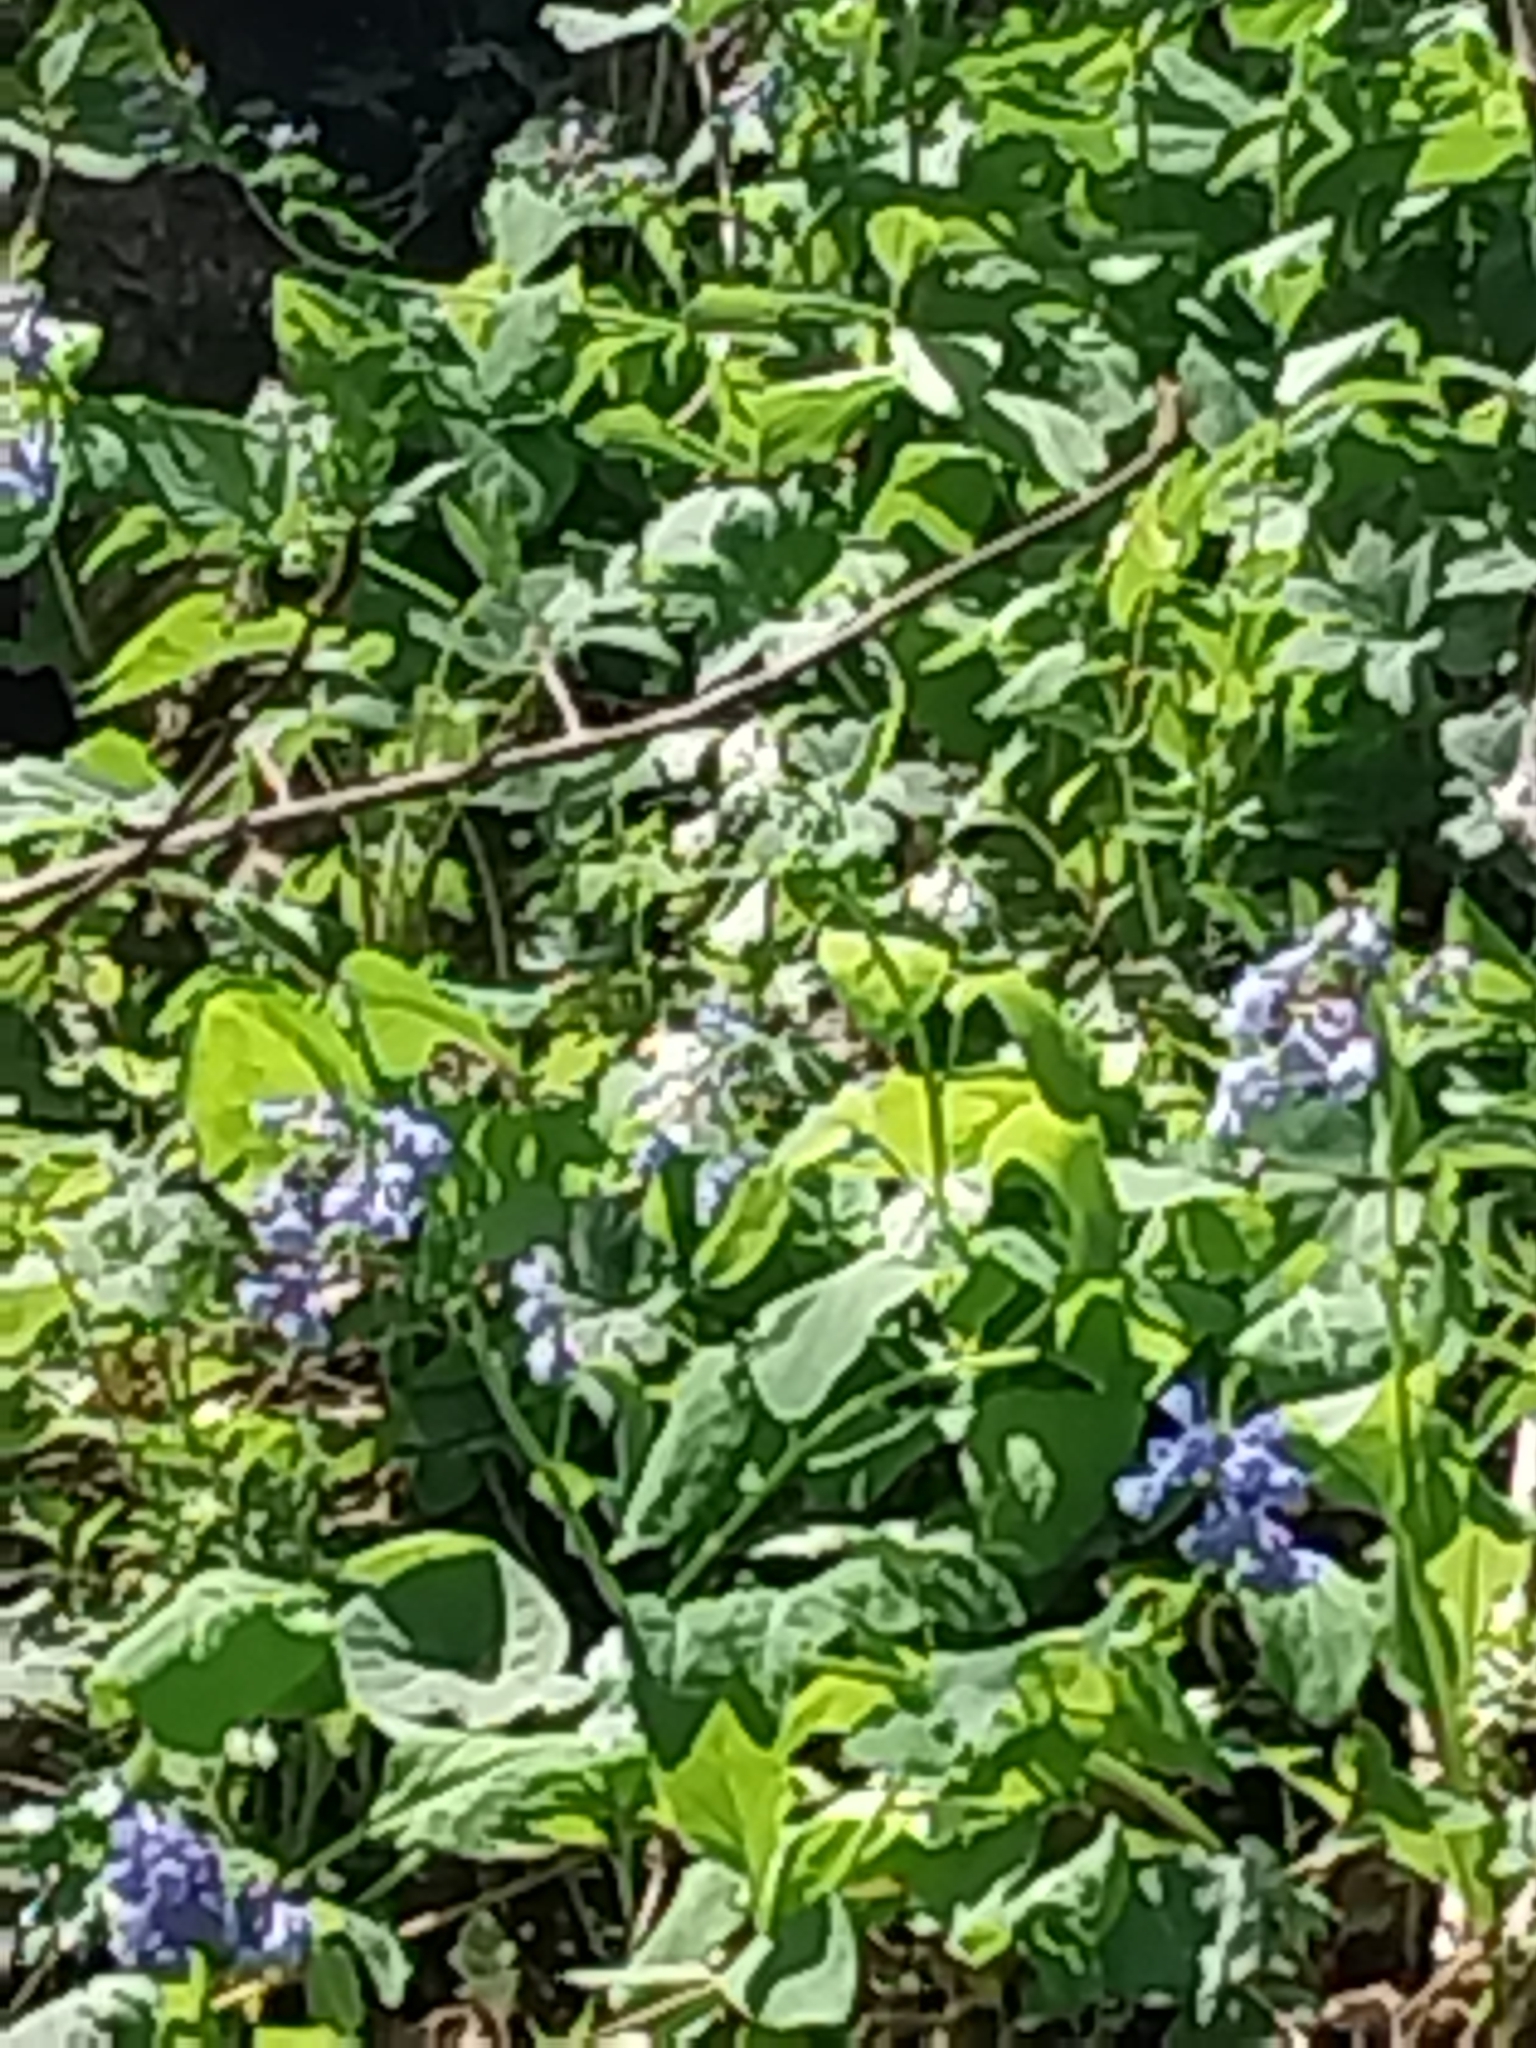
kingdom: Plantae
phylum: Tracheophyta
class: Magnoliopsida
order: Boraginales
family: Boraginaceae
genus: Mertensia
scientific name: Mertensia virginica
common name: Virginia bluebells
